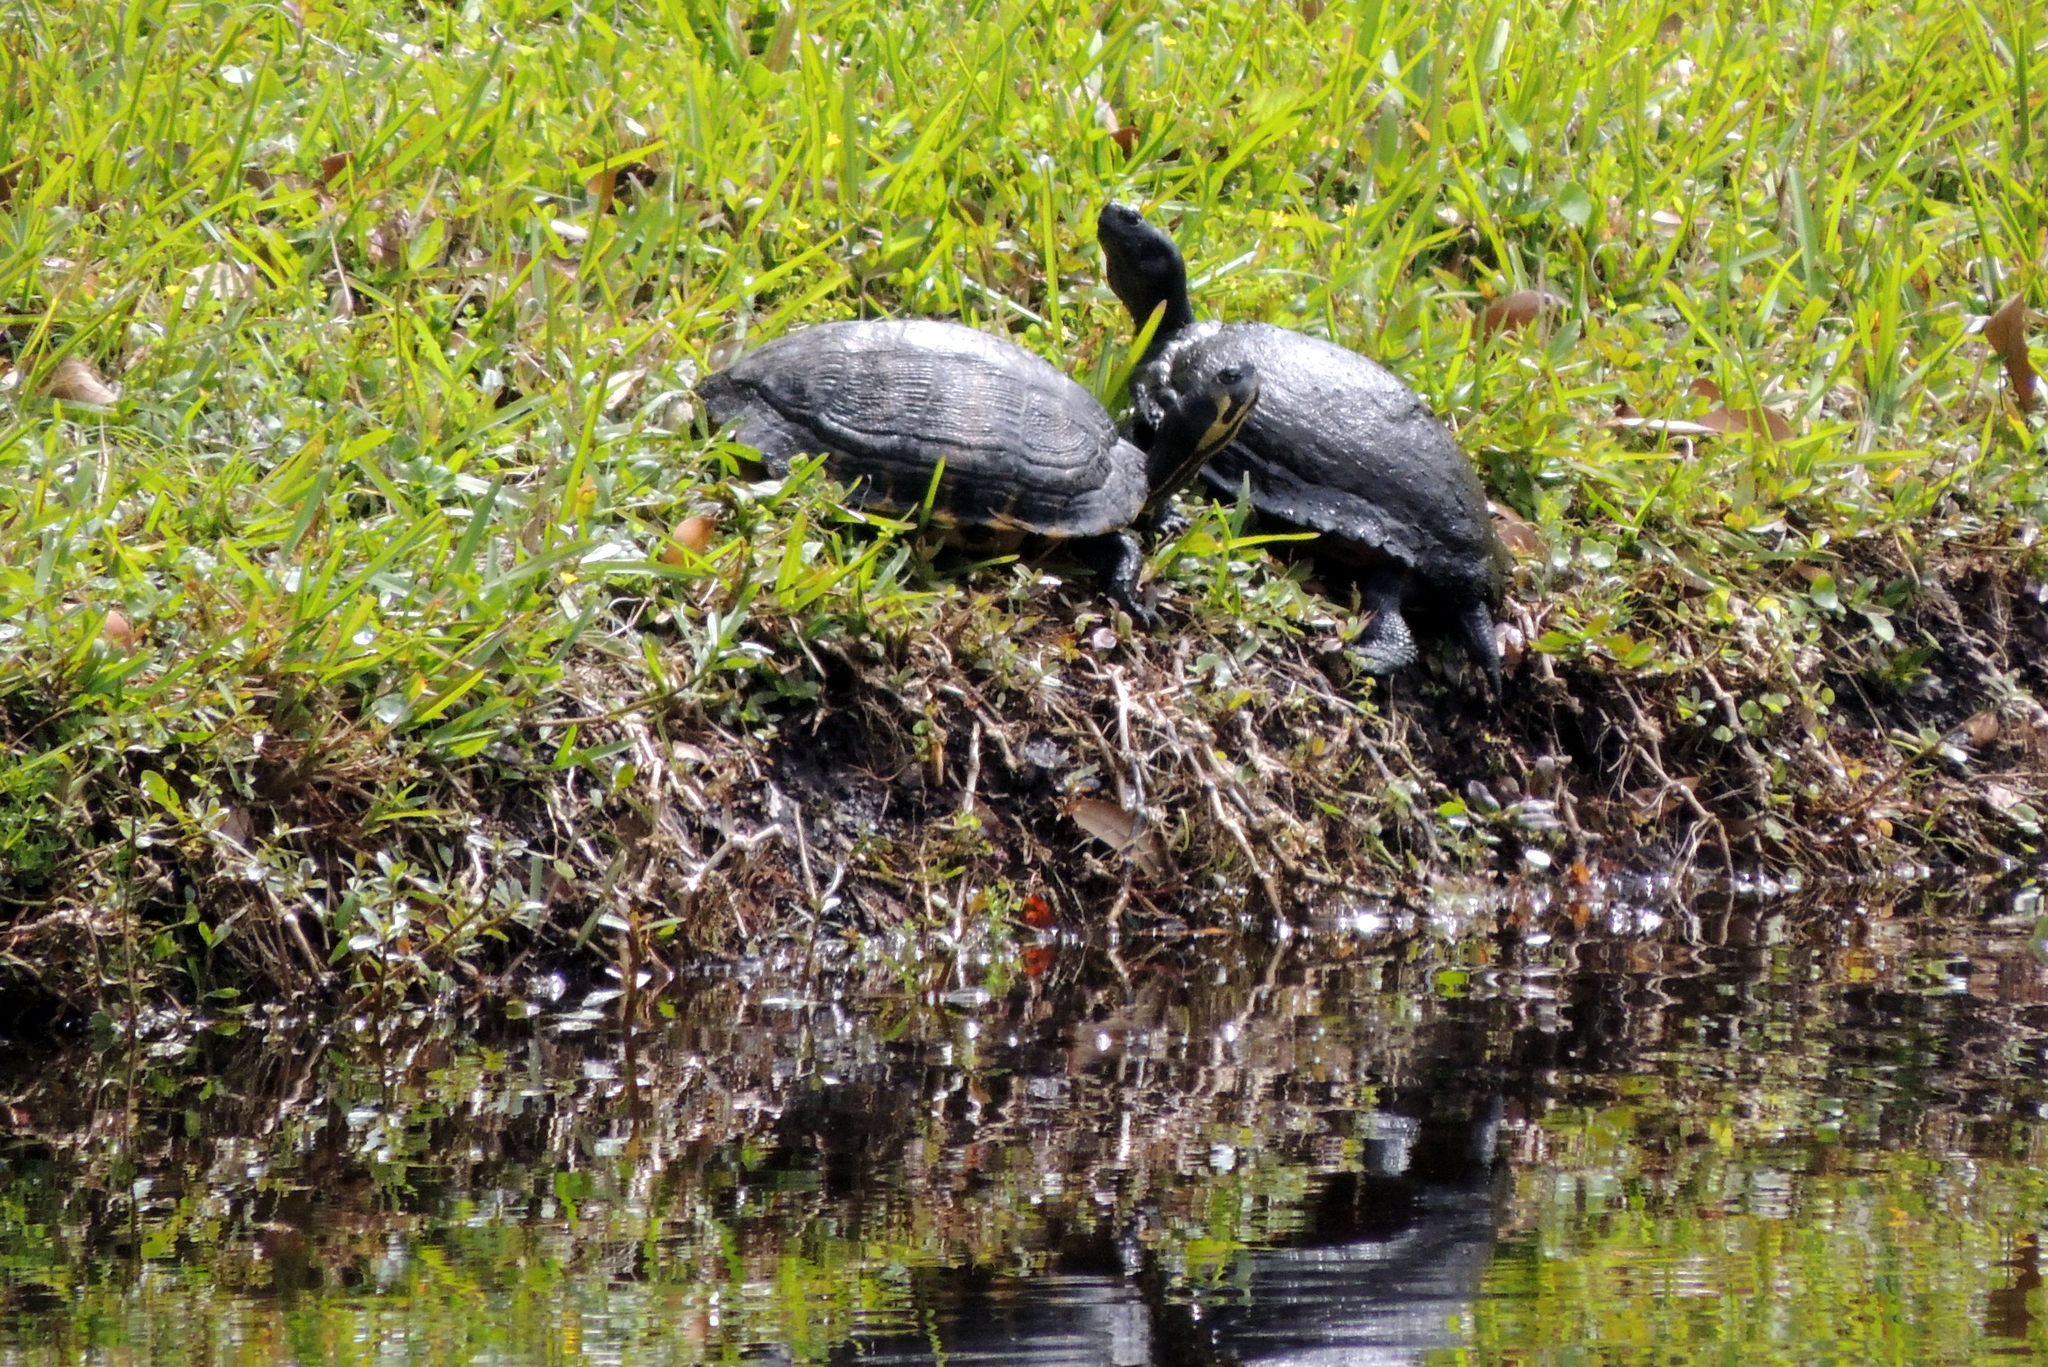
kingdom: Animalia
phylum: Chordata
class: Testudines
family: Emydidae
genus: Trachemys
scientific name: Trachemys scripta
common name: Slider
